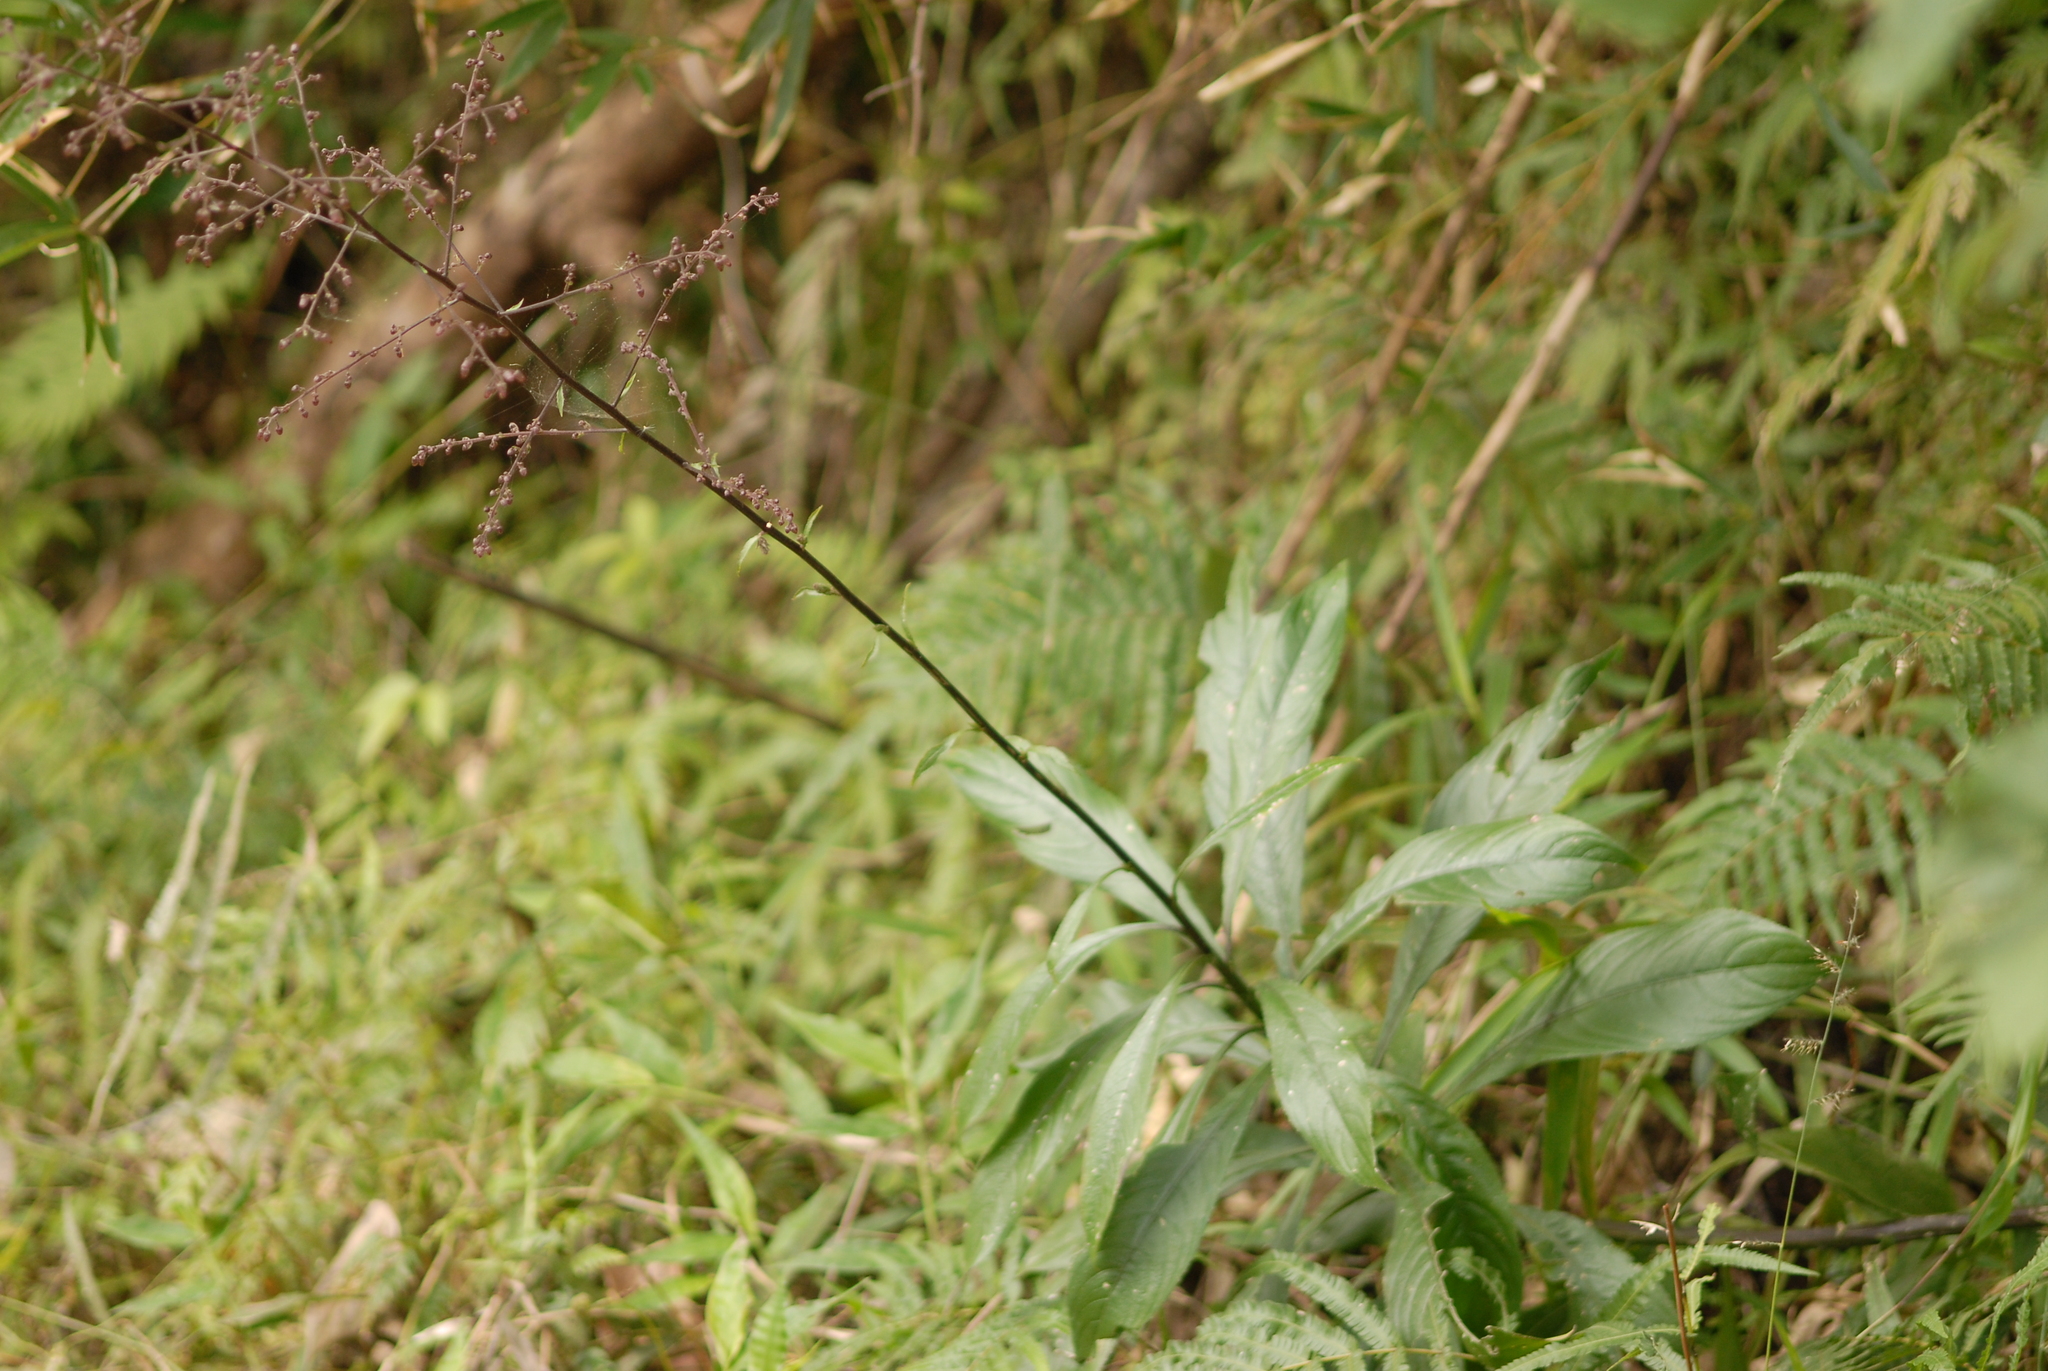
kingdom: Plantae
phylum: Tracheophyta
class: Magnoliopsida
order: Asterales
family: Asteraceae
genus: Blumea
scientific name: Blumea lanceolaria
